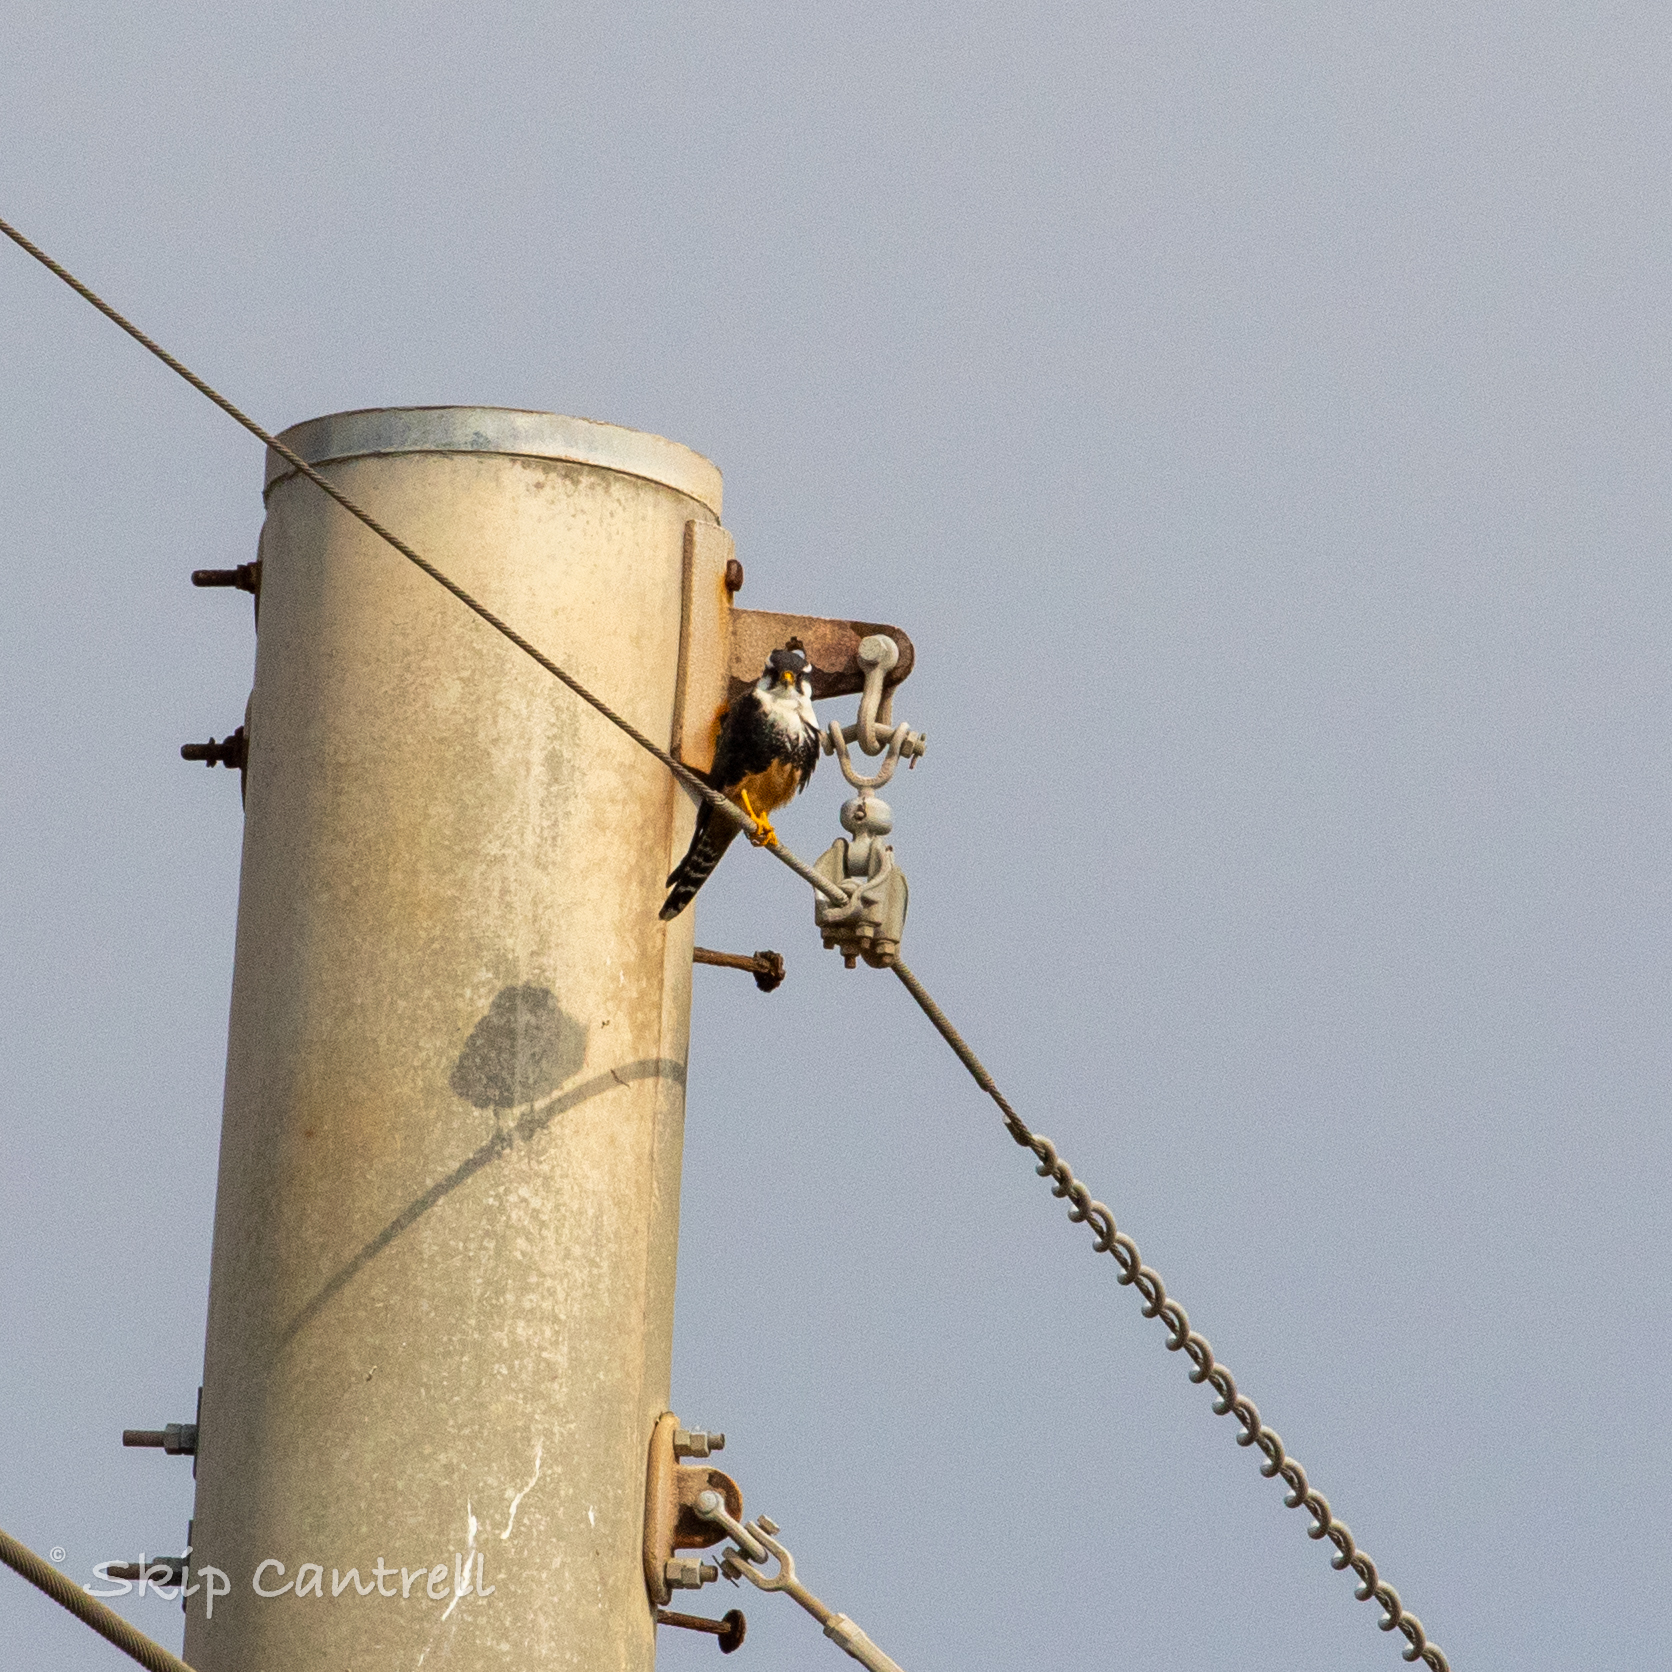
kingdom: Animalia
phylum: Chordata
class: Aves
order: Falconiformes
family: Falconidae
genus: Falco
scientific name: Falco femoralis
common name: Aplomado falcon
